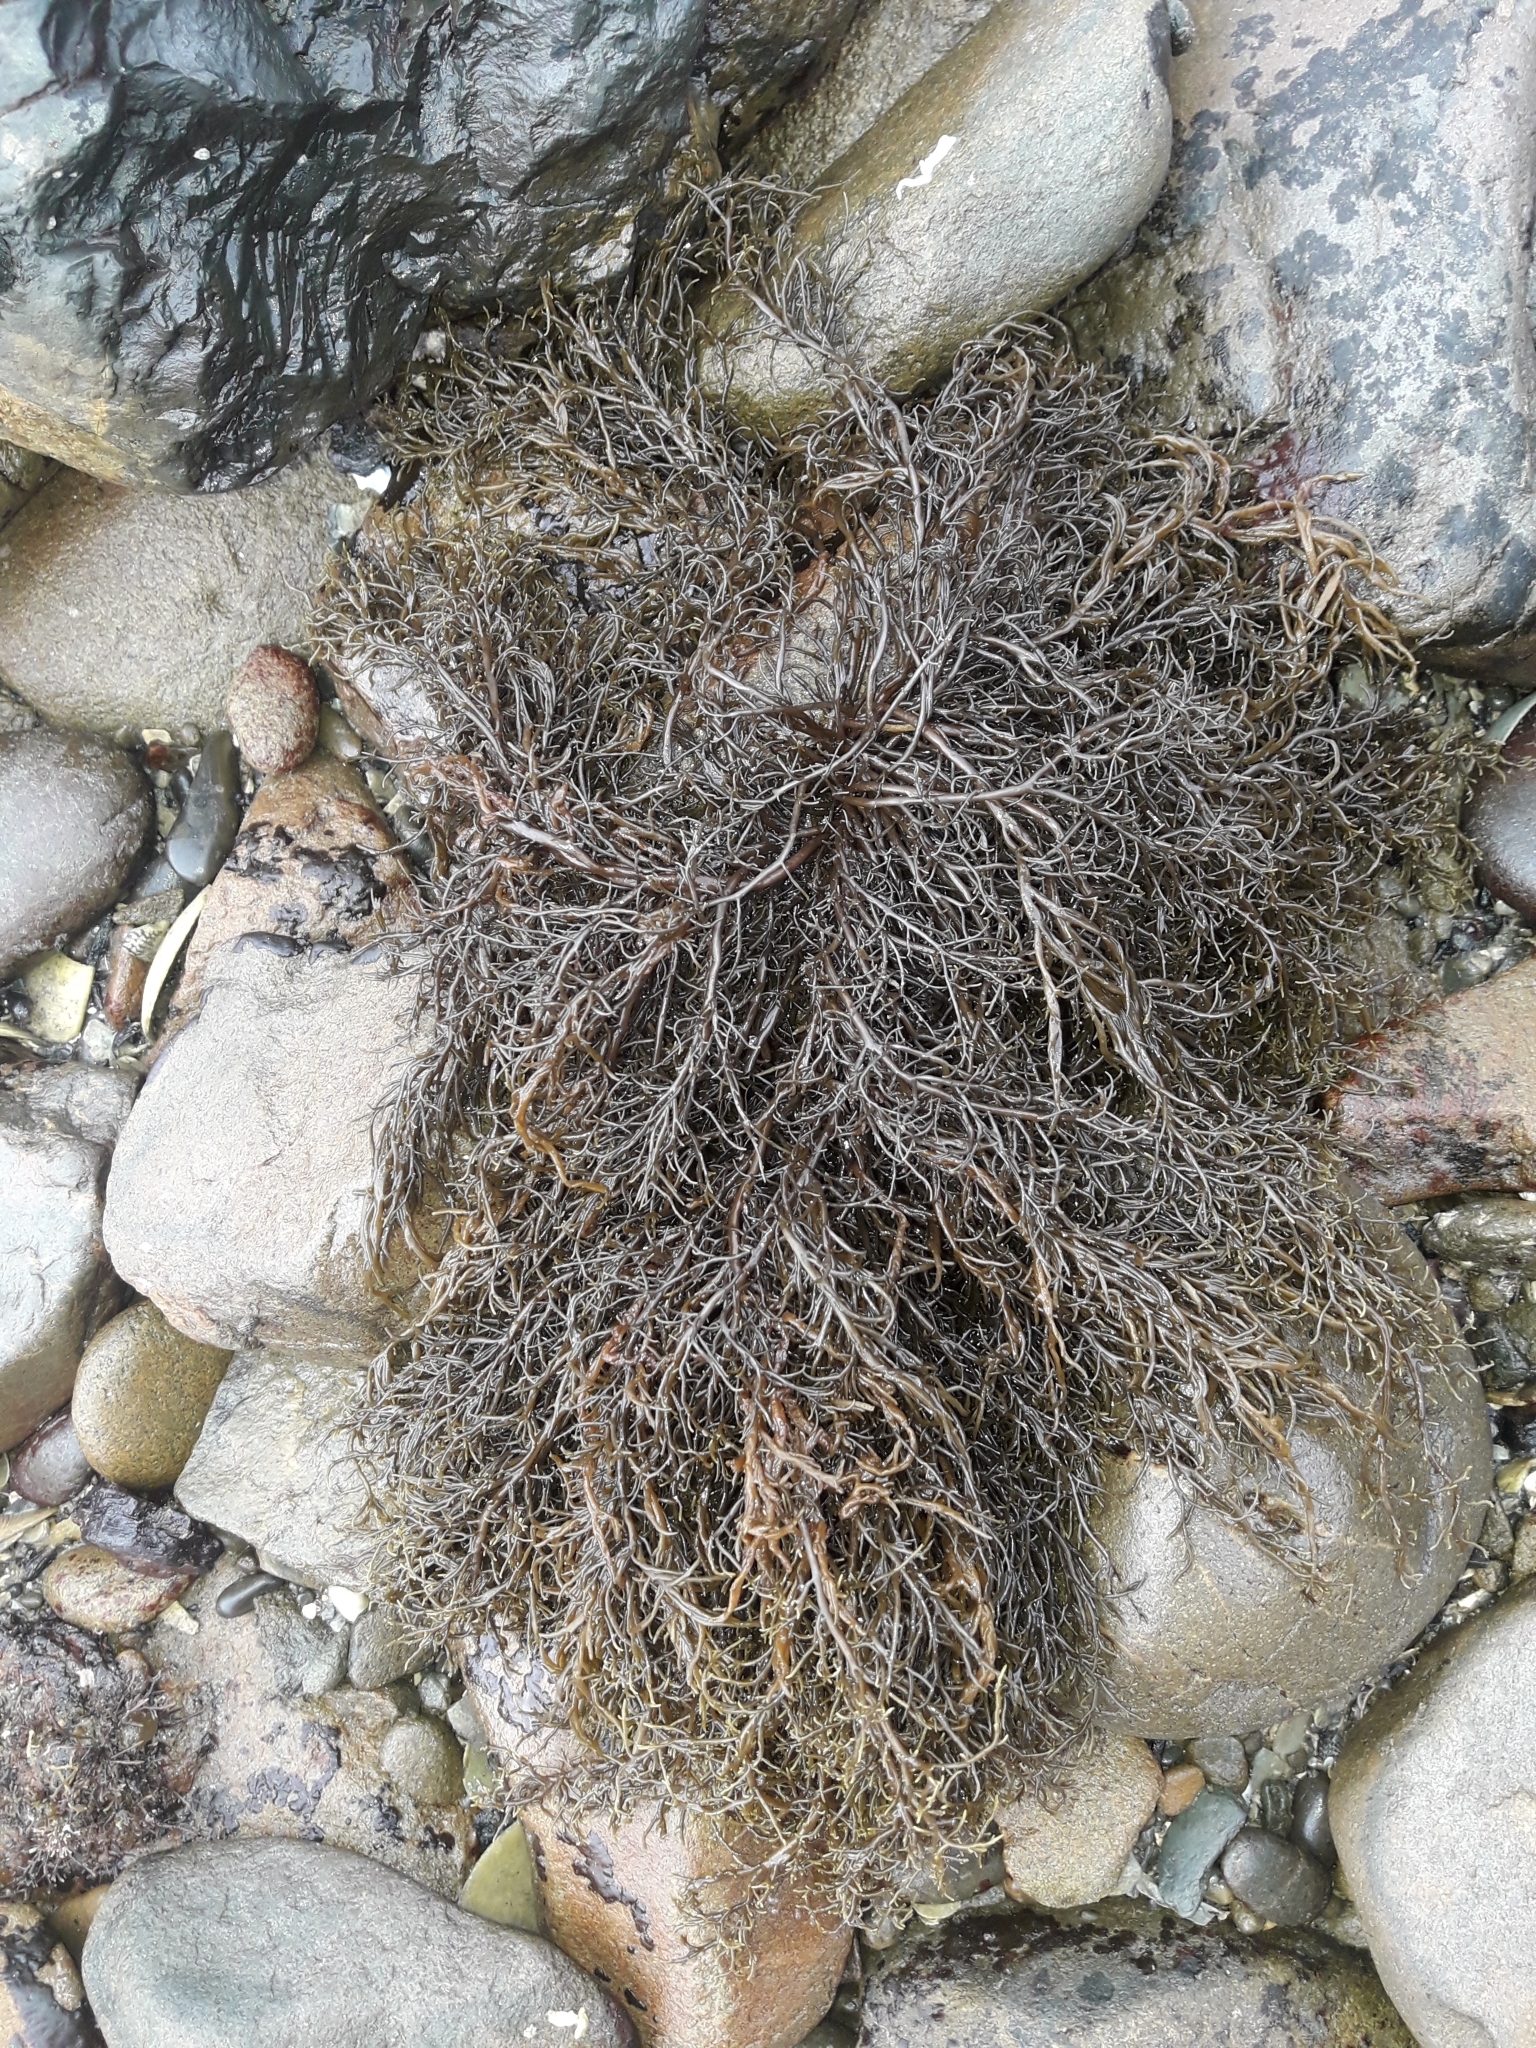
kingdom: Chromista
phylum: Ochrophyta
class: Phaeophyceae
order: Scytothamnales
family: Scytothamnaceae
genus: Scytothamnus
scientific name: Scytothamnus australis
